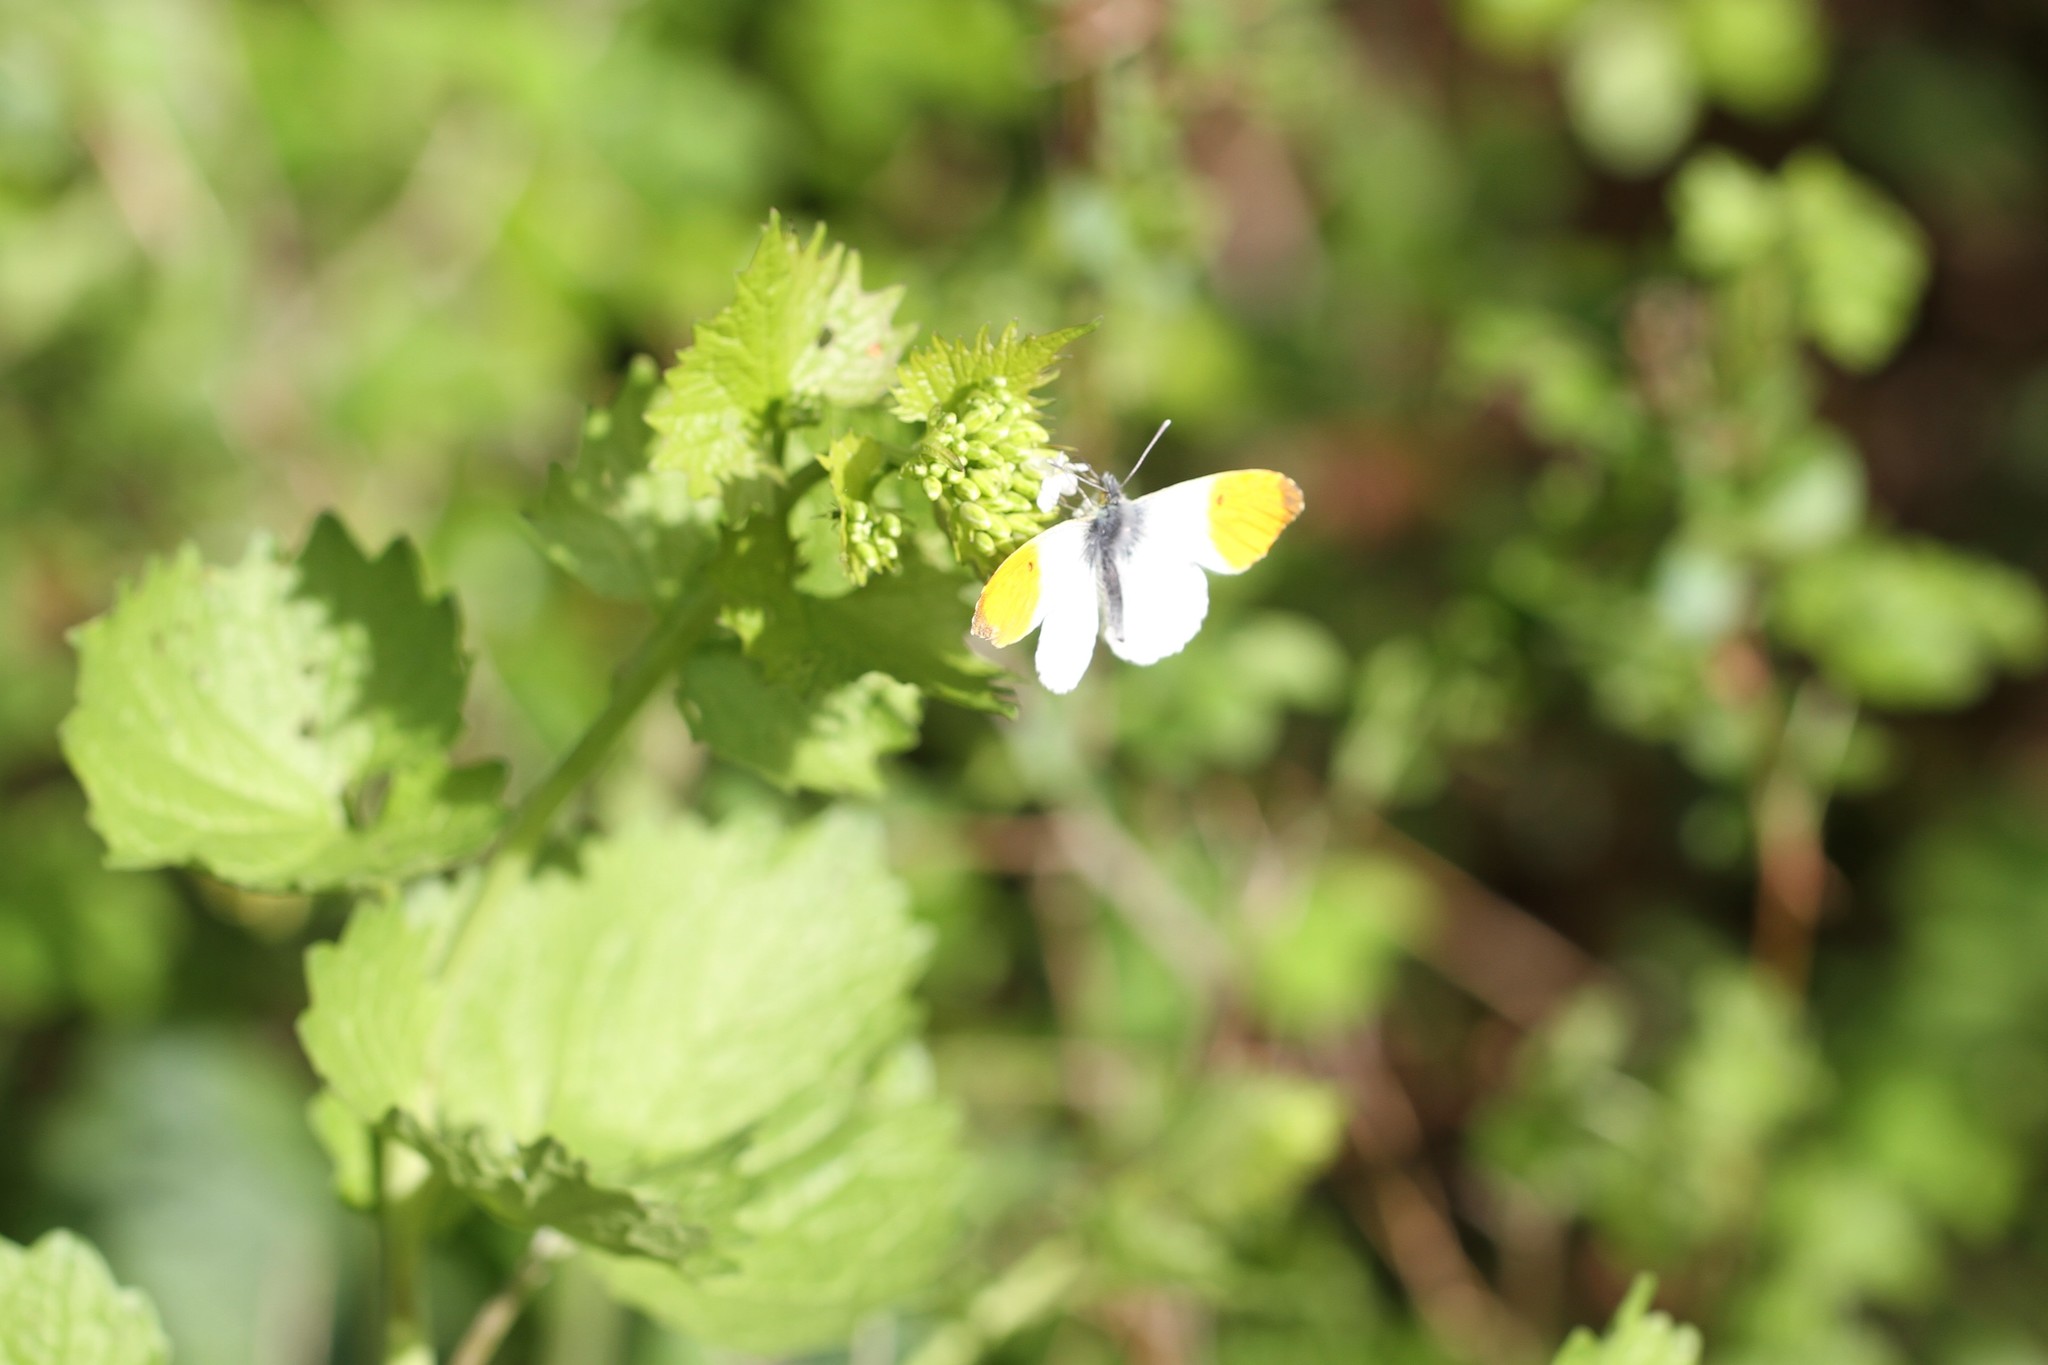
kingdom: Animalia
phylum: Arthropoda
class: Insecta
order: Lepidoptera
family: Pieridae
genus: Anthocharis
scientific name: Anthocharis cardamines
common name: Orange-tip
